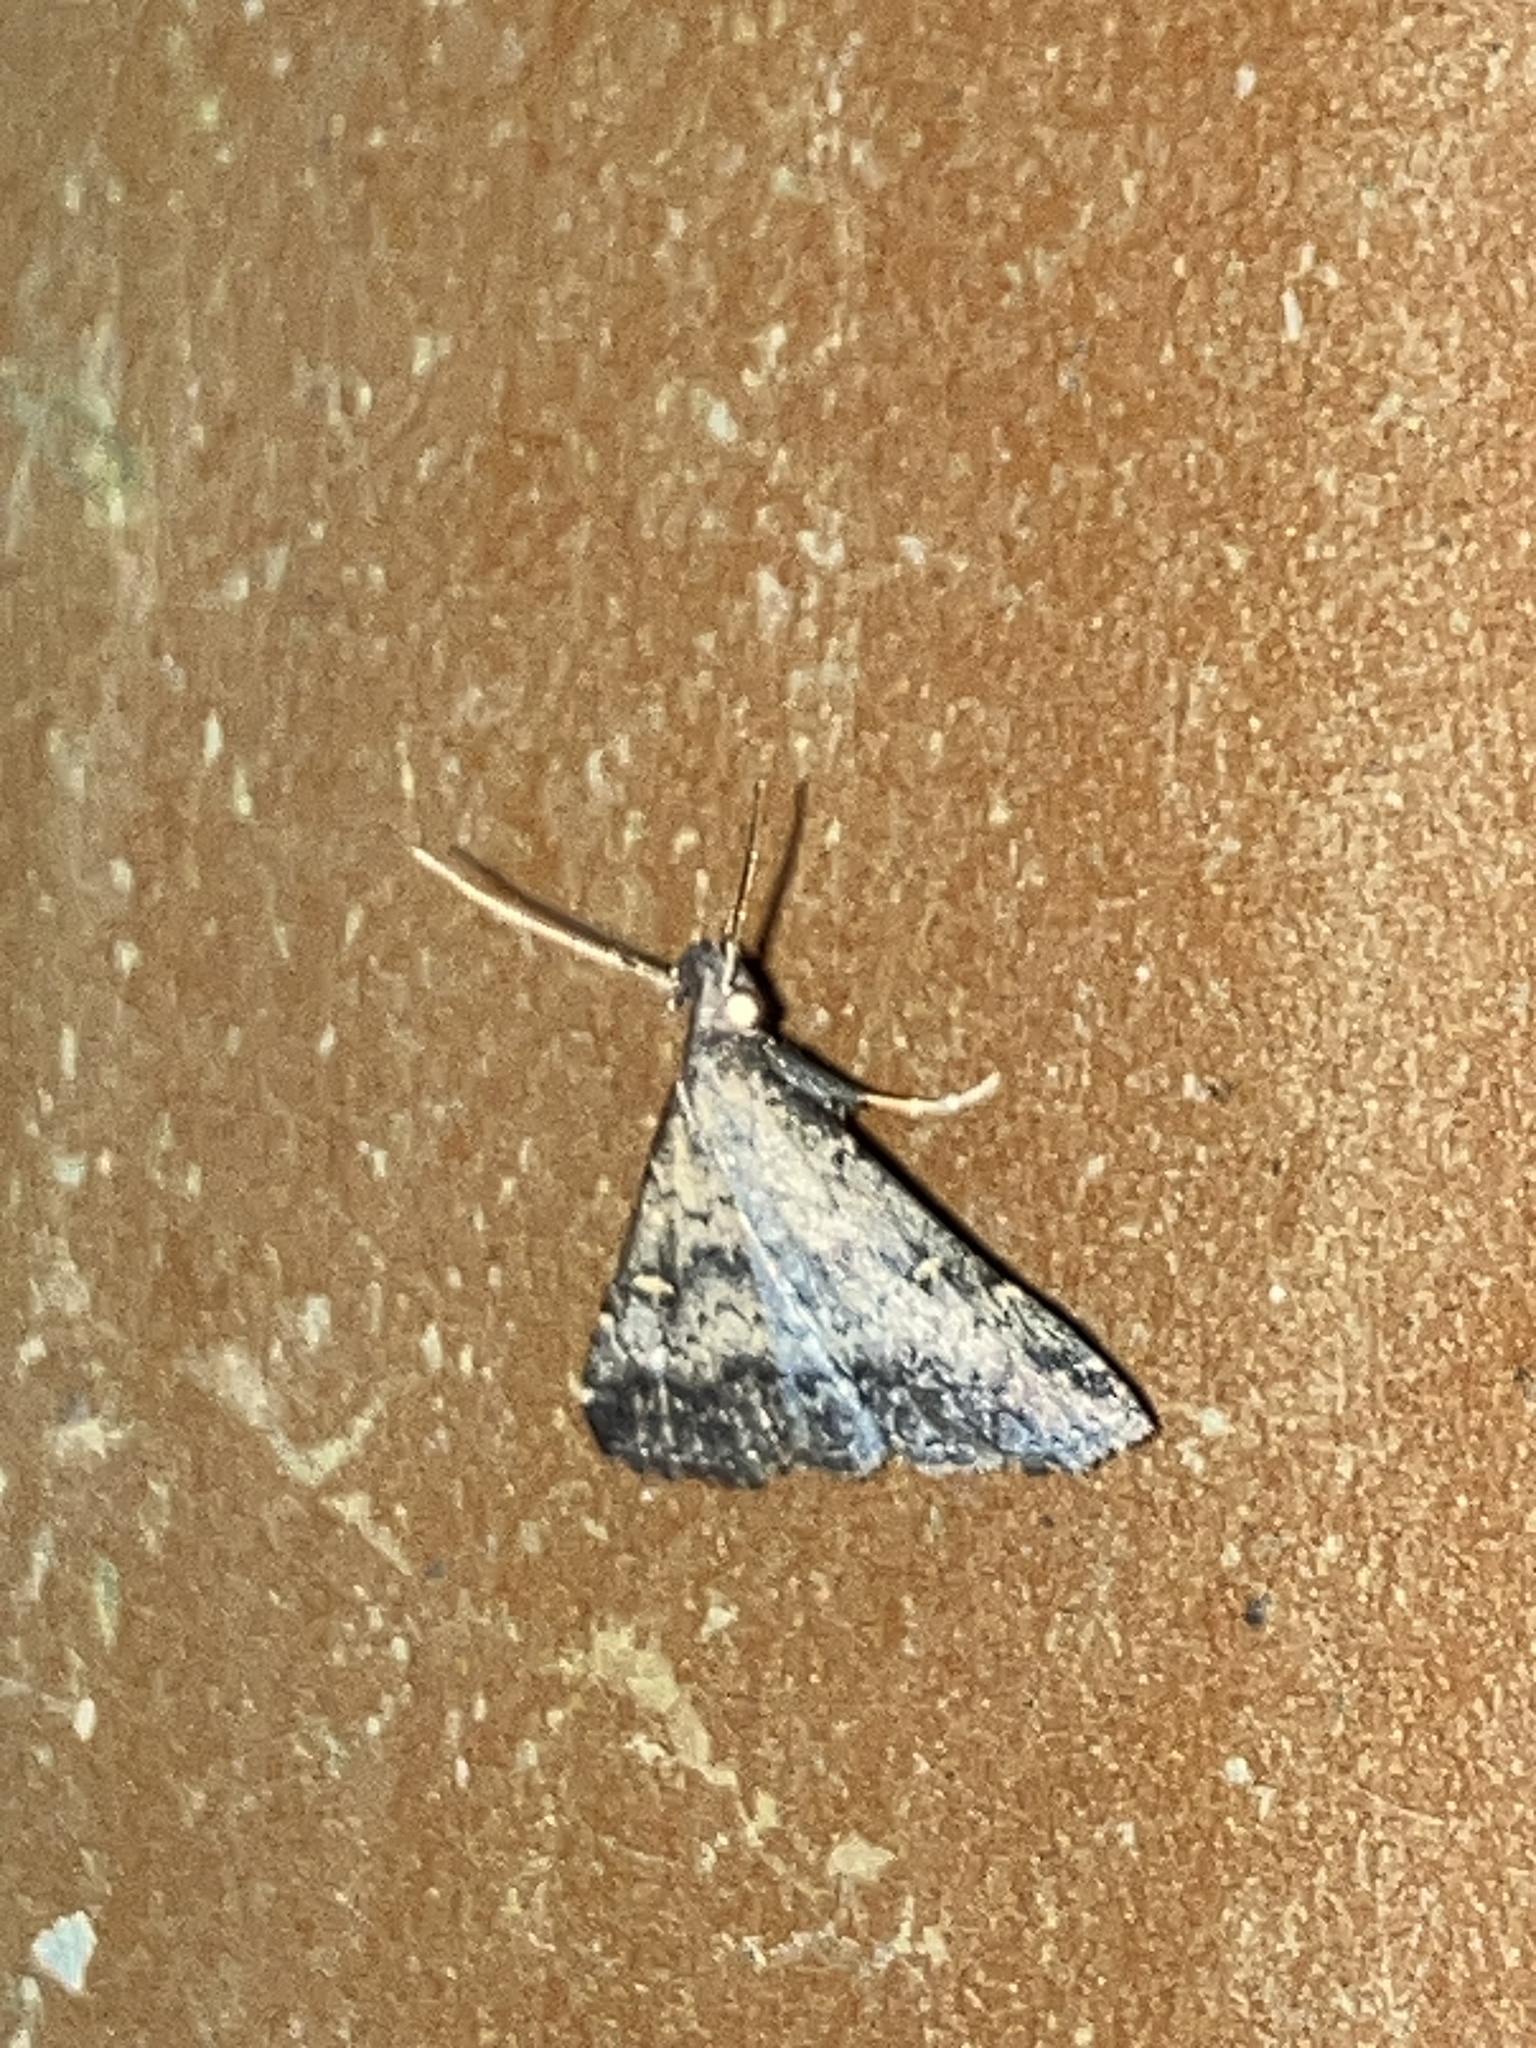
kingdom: Animalia
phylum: Arthropoda
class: Insecta
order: Lepidoptera
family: Erebidae
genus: Tetanolita
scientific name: Tetanolita floridana
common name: Florida tetanolita moth
